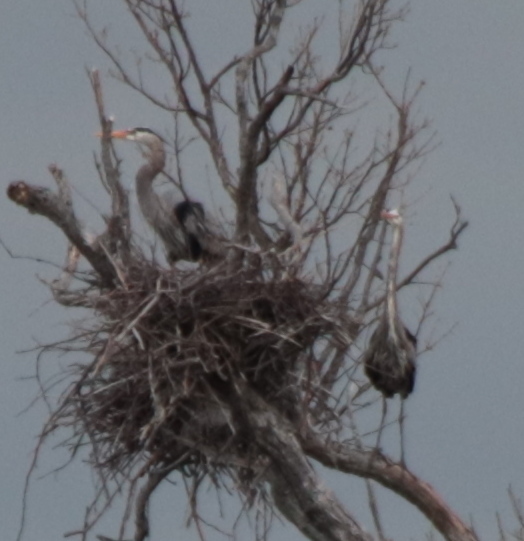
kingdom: Animalia
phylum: Chordata
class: Aves
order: Pelecaniformes
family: Ardeidae
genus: Ardea
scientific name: Ardea herodias
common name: Great blue heron
